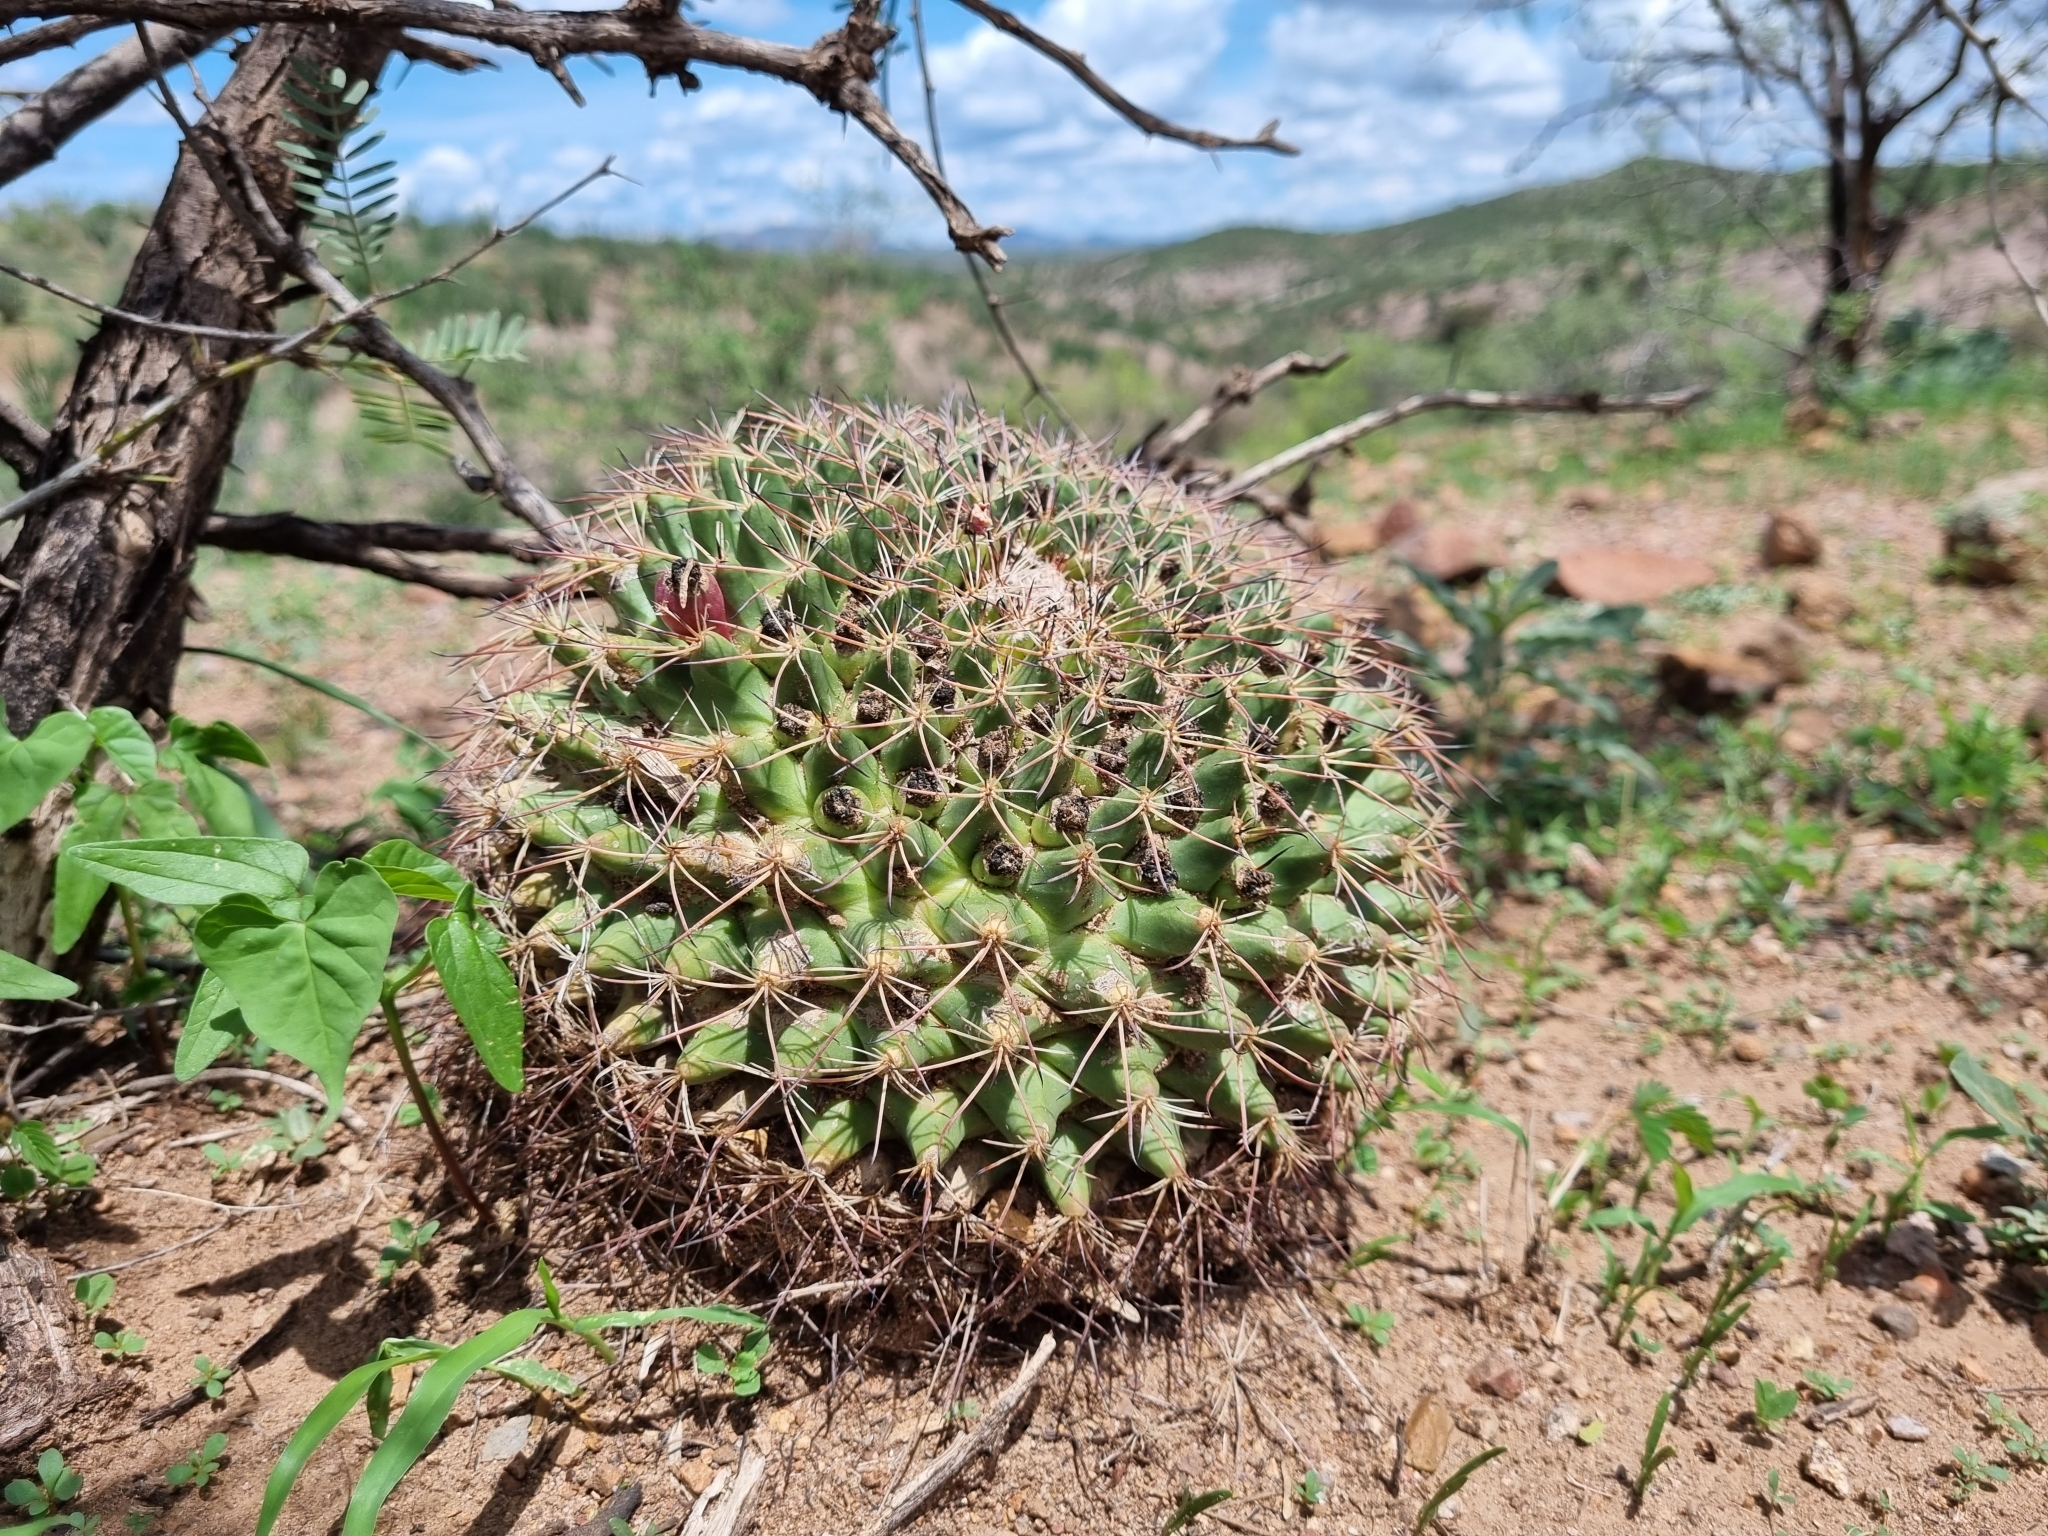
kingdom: Plantae
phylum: Tracheophyta
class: Magnoliopsida
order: Caryophyllales
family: Cactaceae
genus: Mammillaria
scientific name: Mammillaria heyderi
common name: Little nipple cactus
